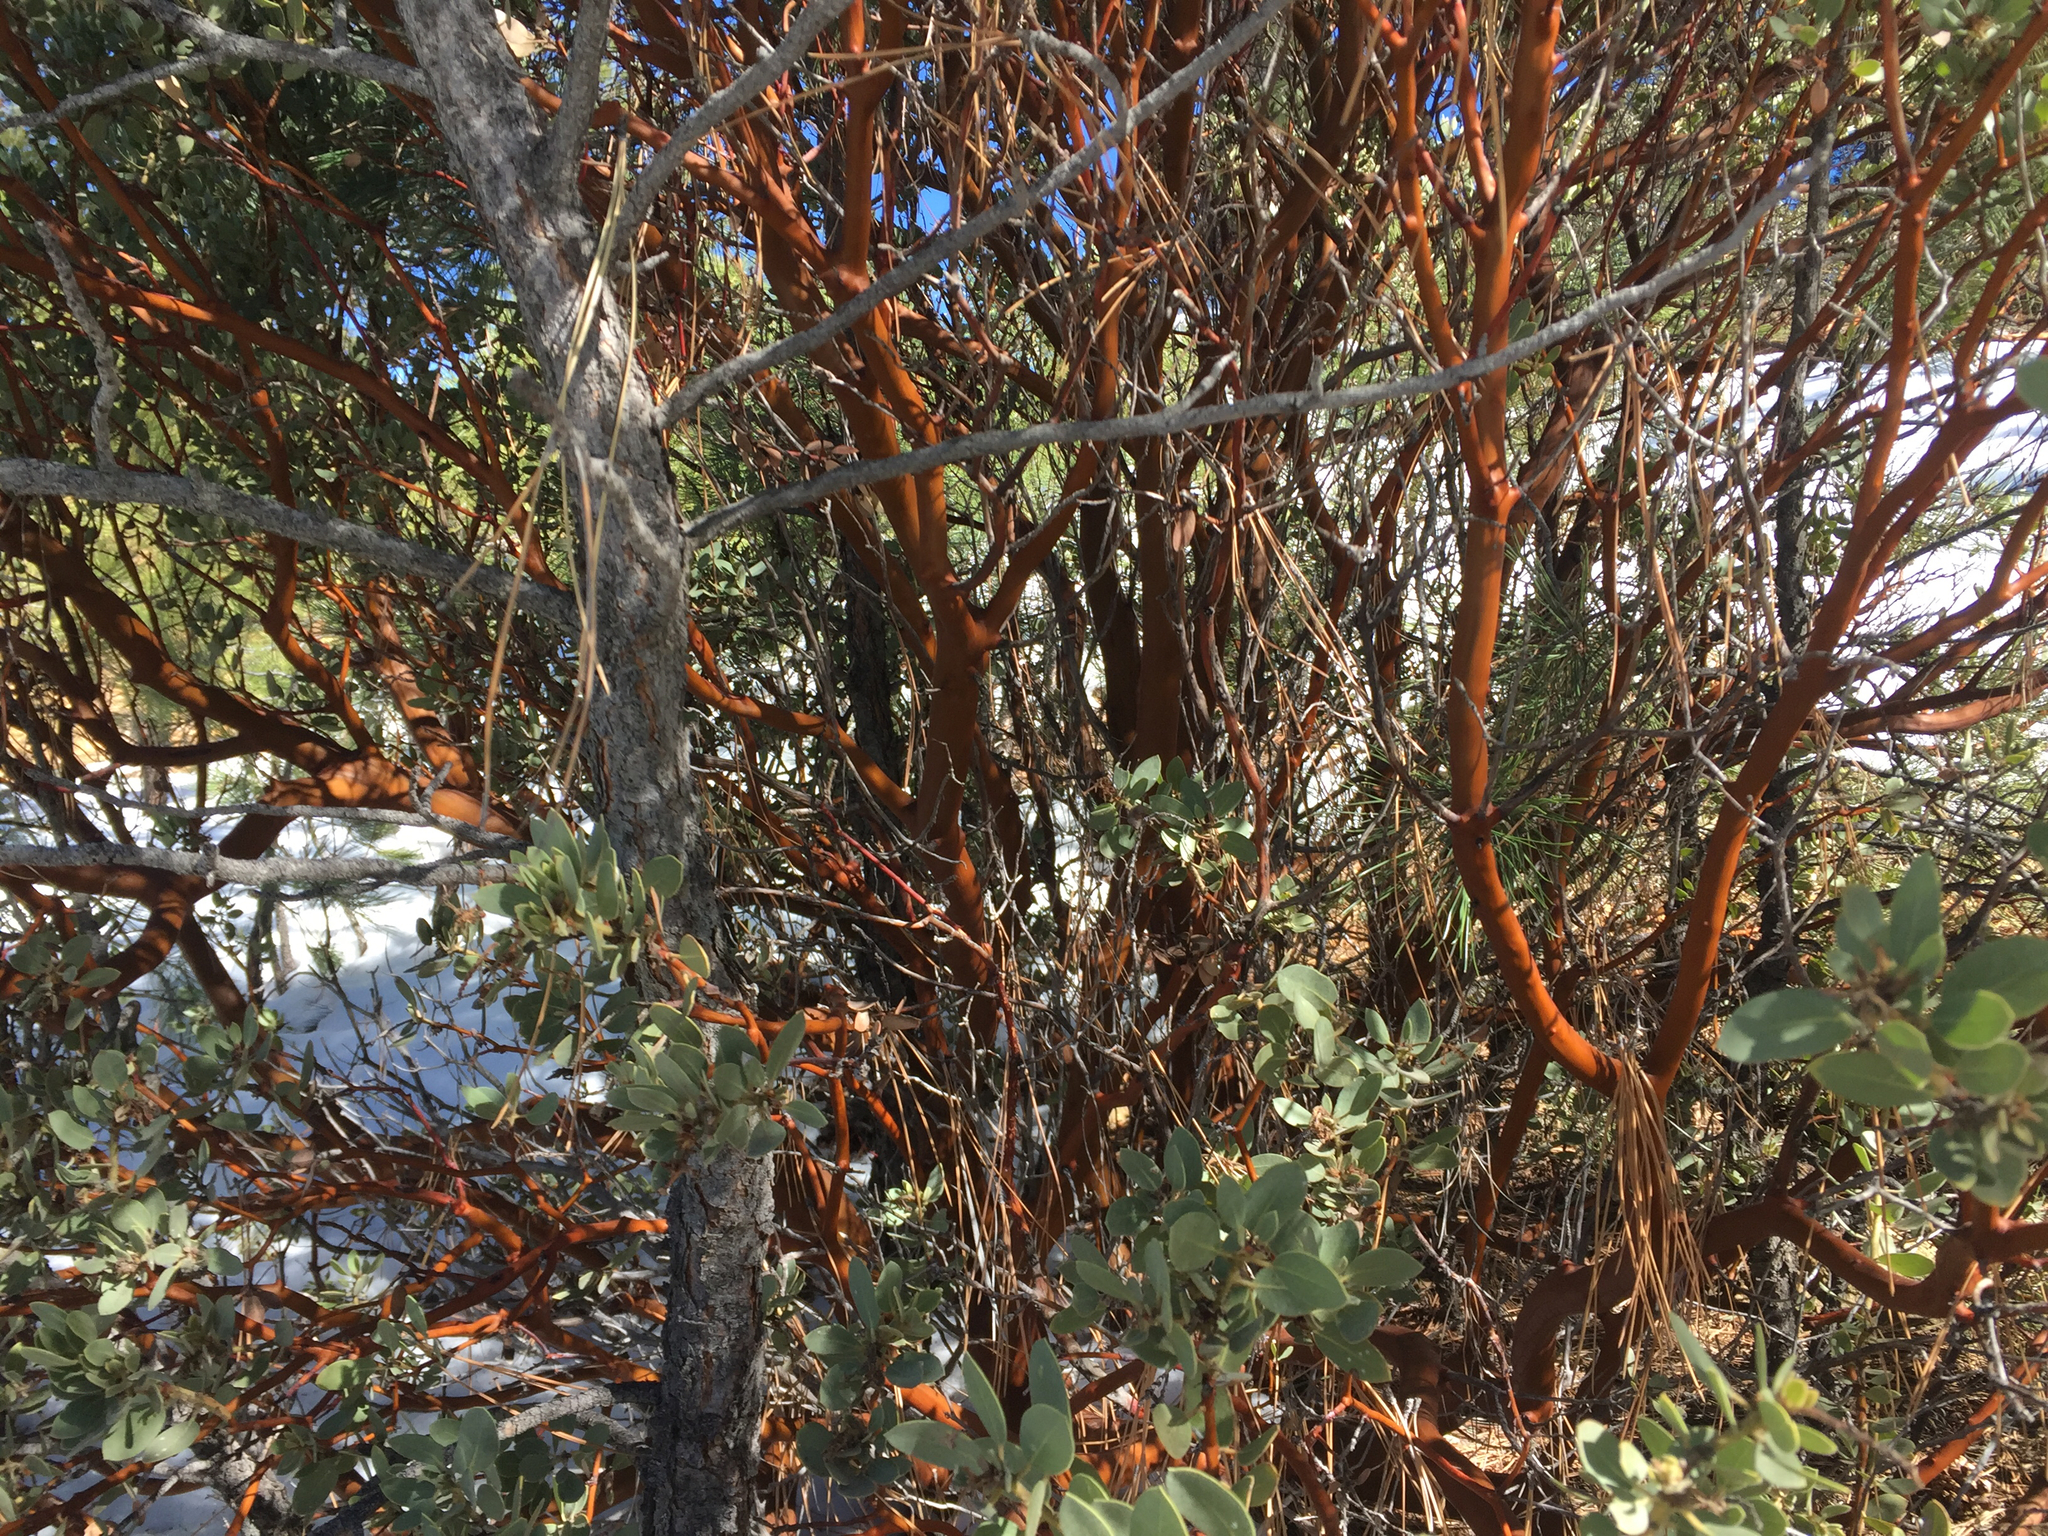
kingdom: Plantae
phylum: Tracheophyta
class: Magnoliopsida
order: Ericales
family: Ericaceae
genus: Arctostaphylos
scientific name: Arctostaphylos pringlei
